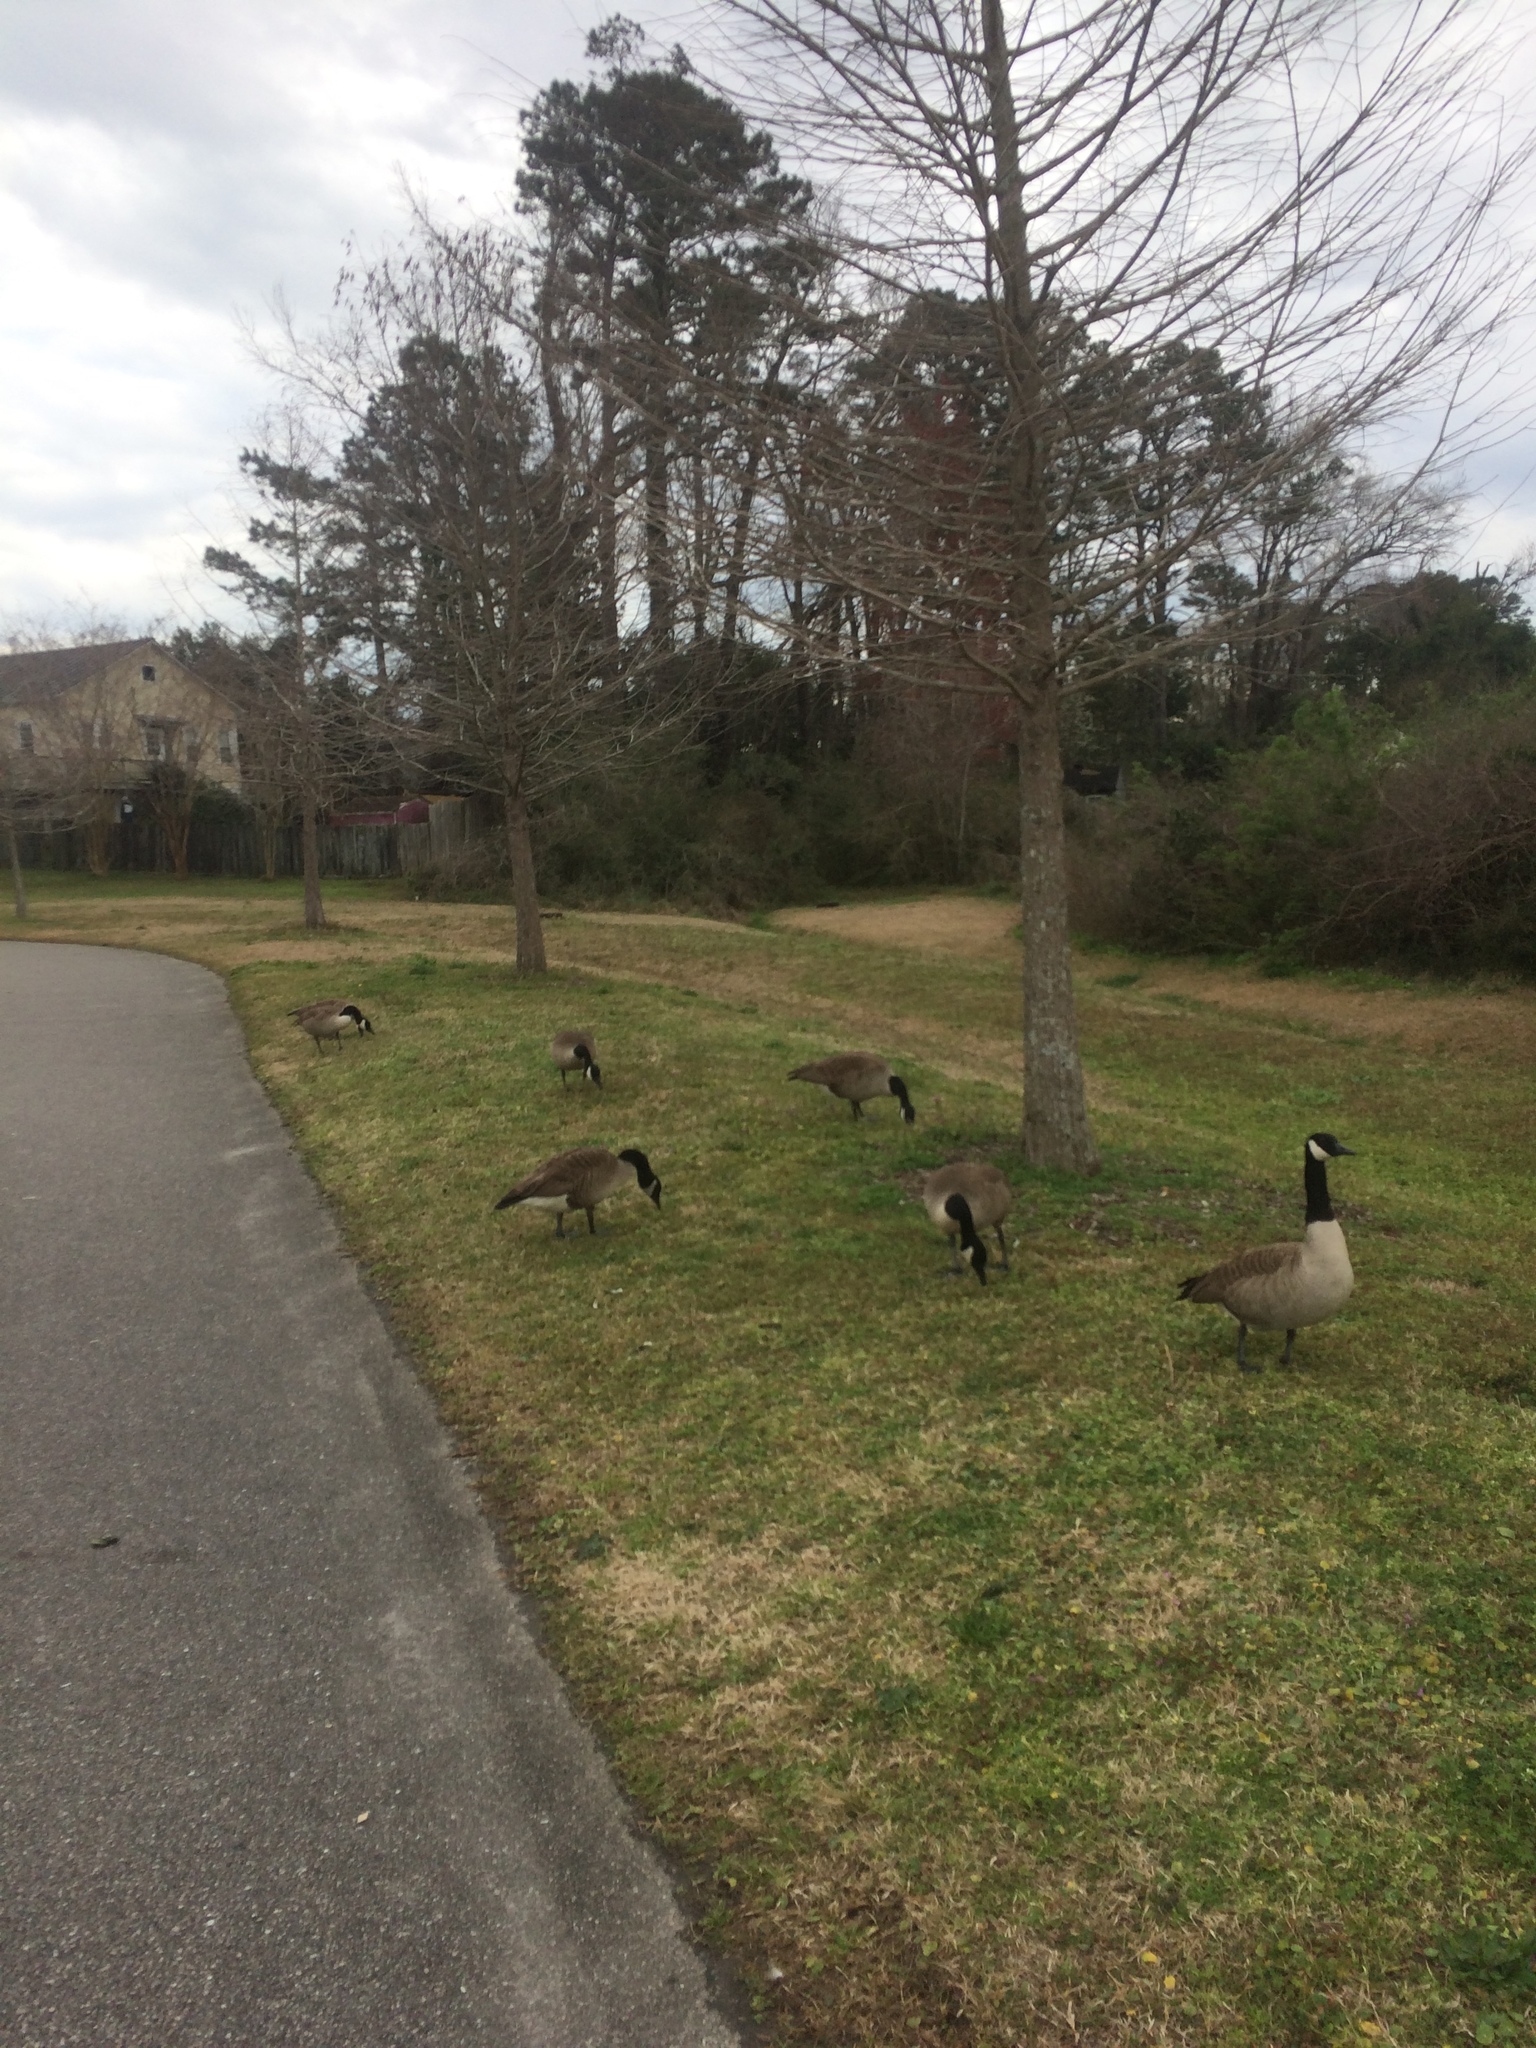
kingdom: Animalia
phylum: Chordata
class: Aves
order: Anseriformes
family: Anatidae
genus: Branta
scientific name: Branta canadensis
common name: Canada goose
